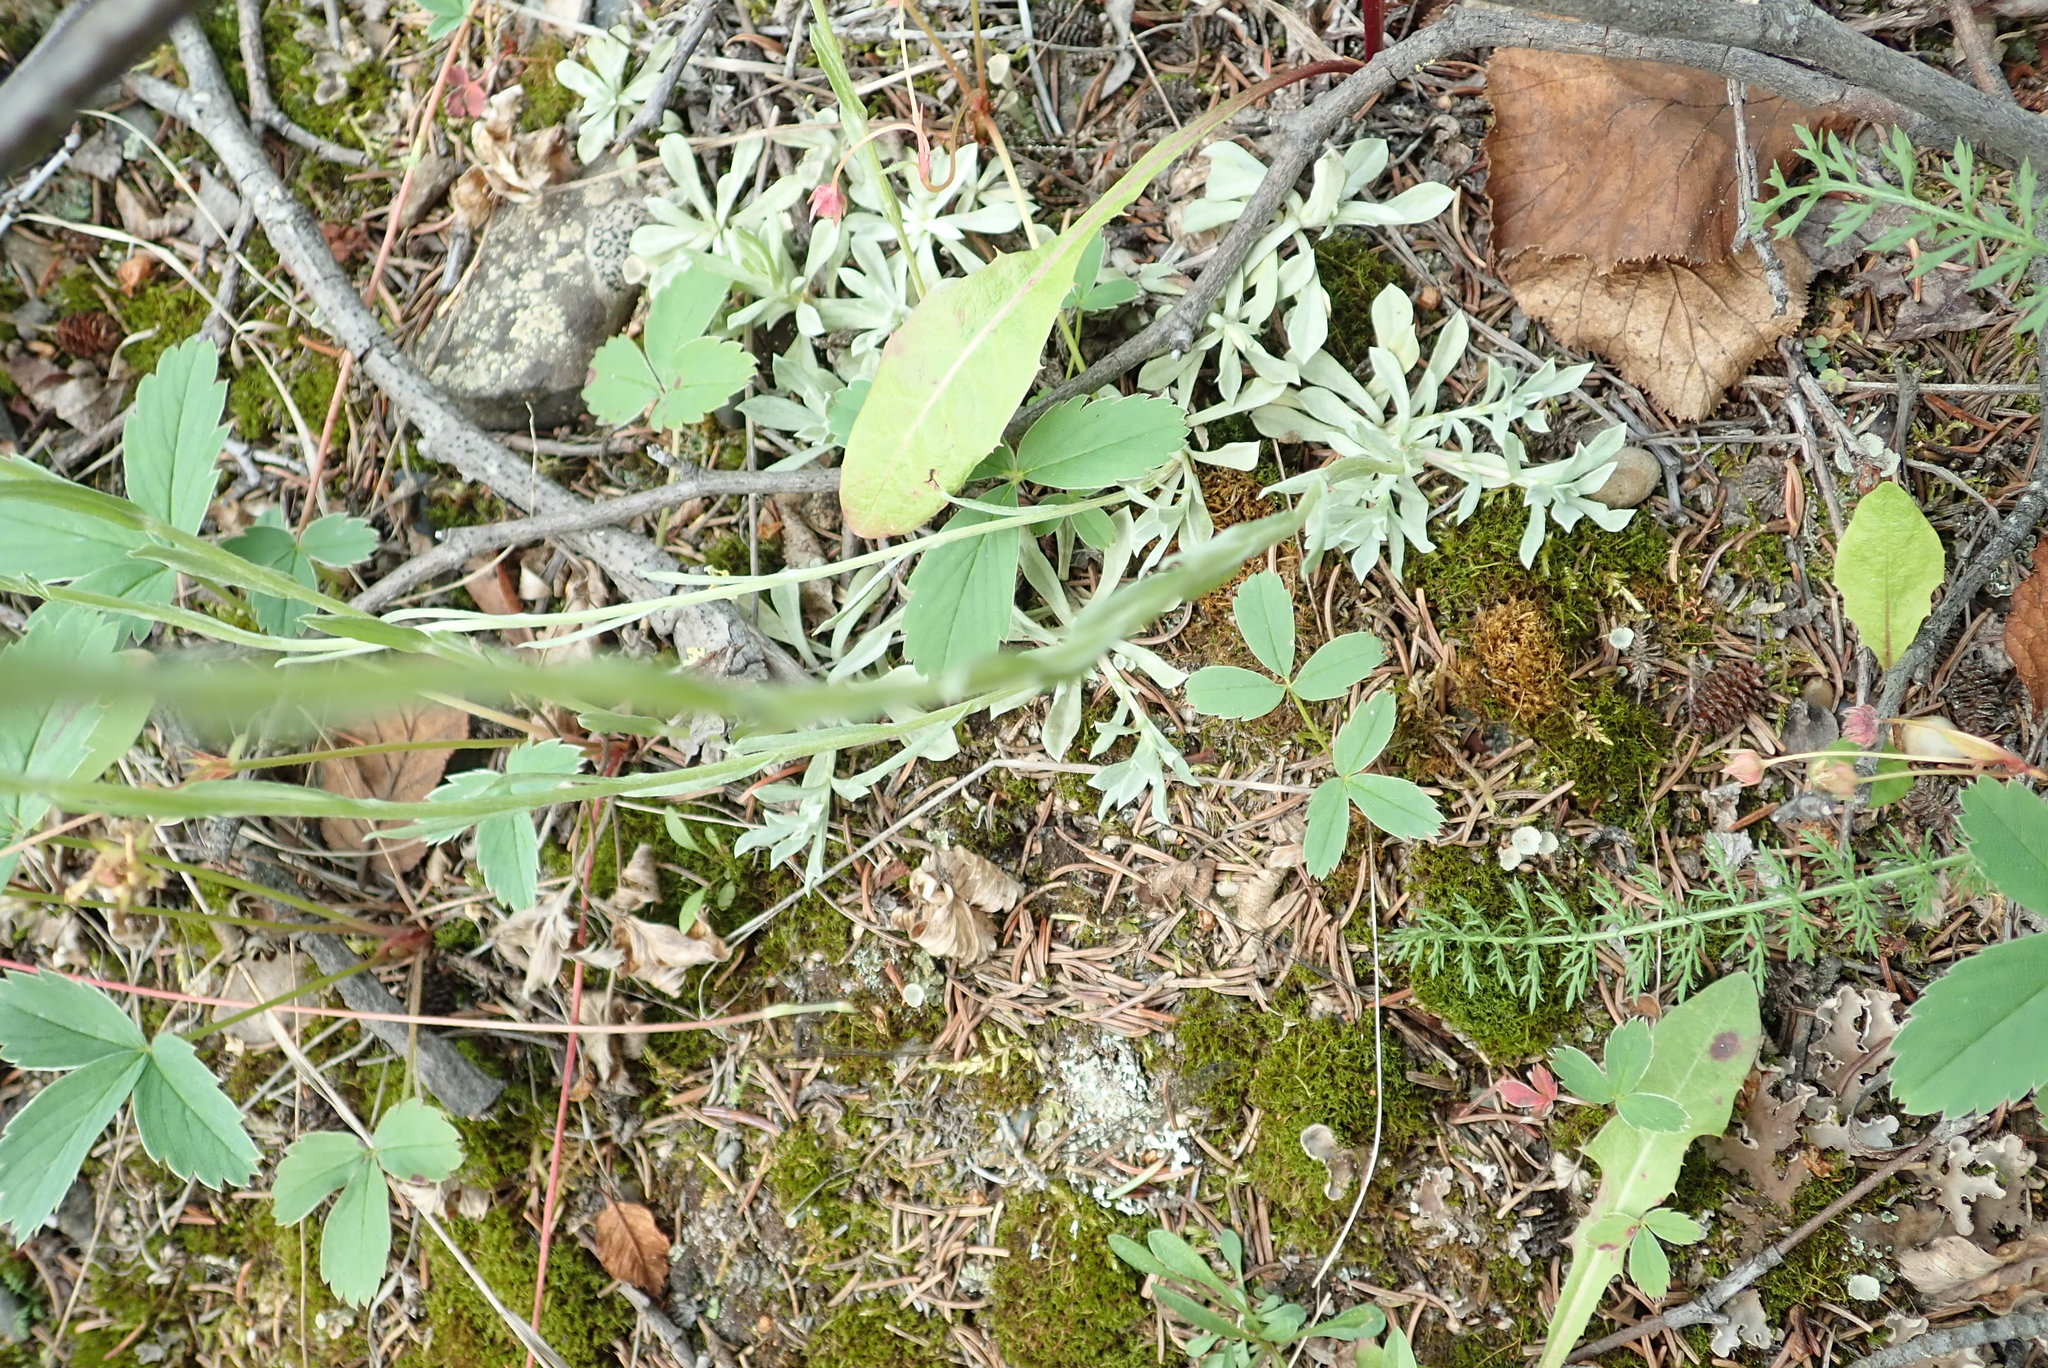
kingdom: Plantae
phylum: Tracheophyta
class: Magnoliopsida
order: Asterales
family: Asteraceae
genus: Antennaria
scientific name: Antennaria rosea
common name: Rosy pussytoes
